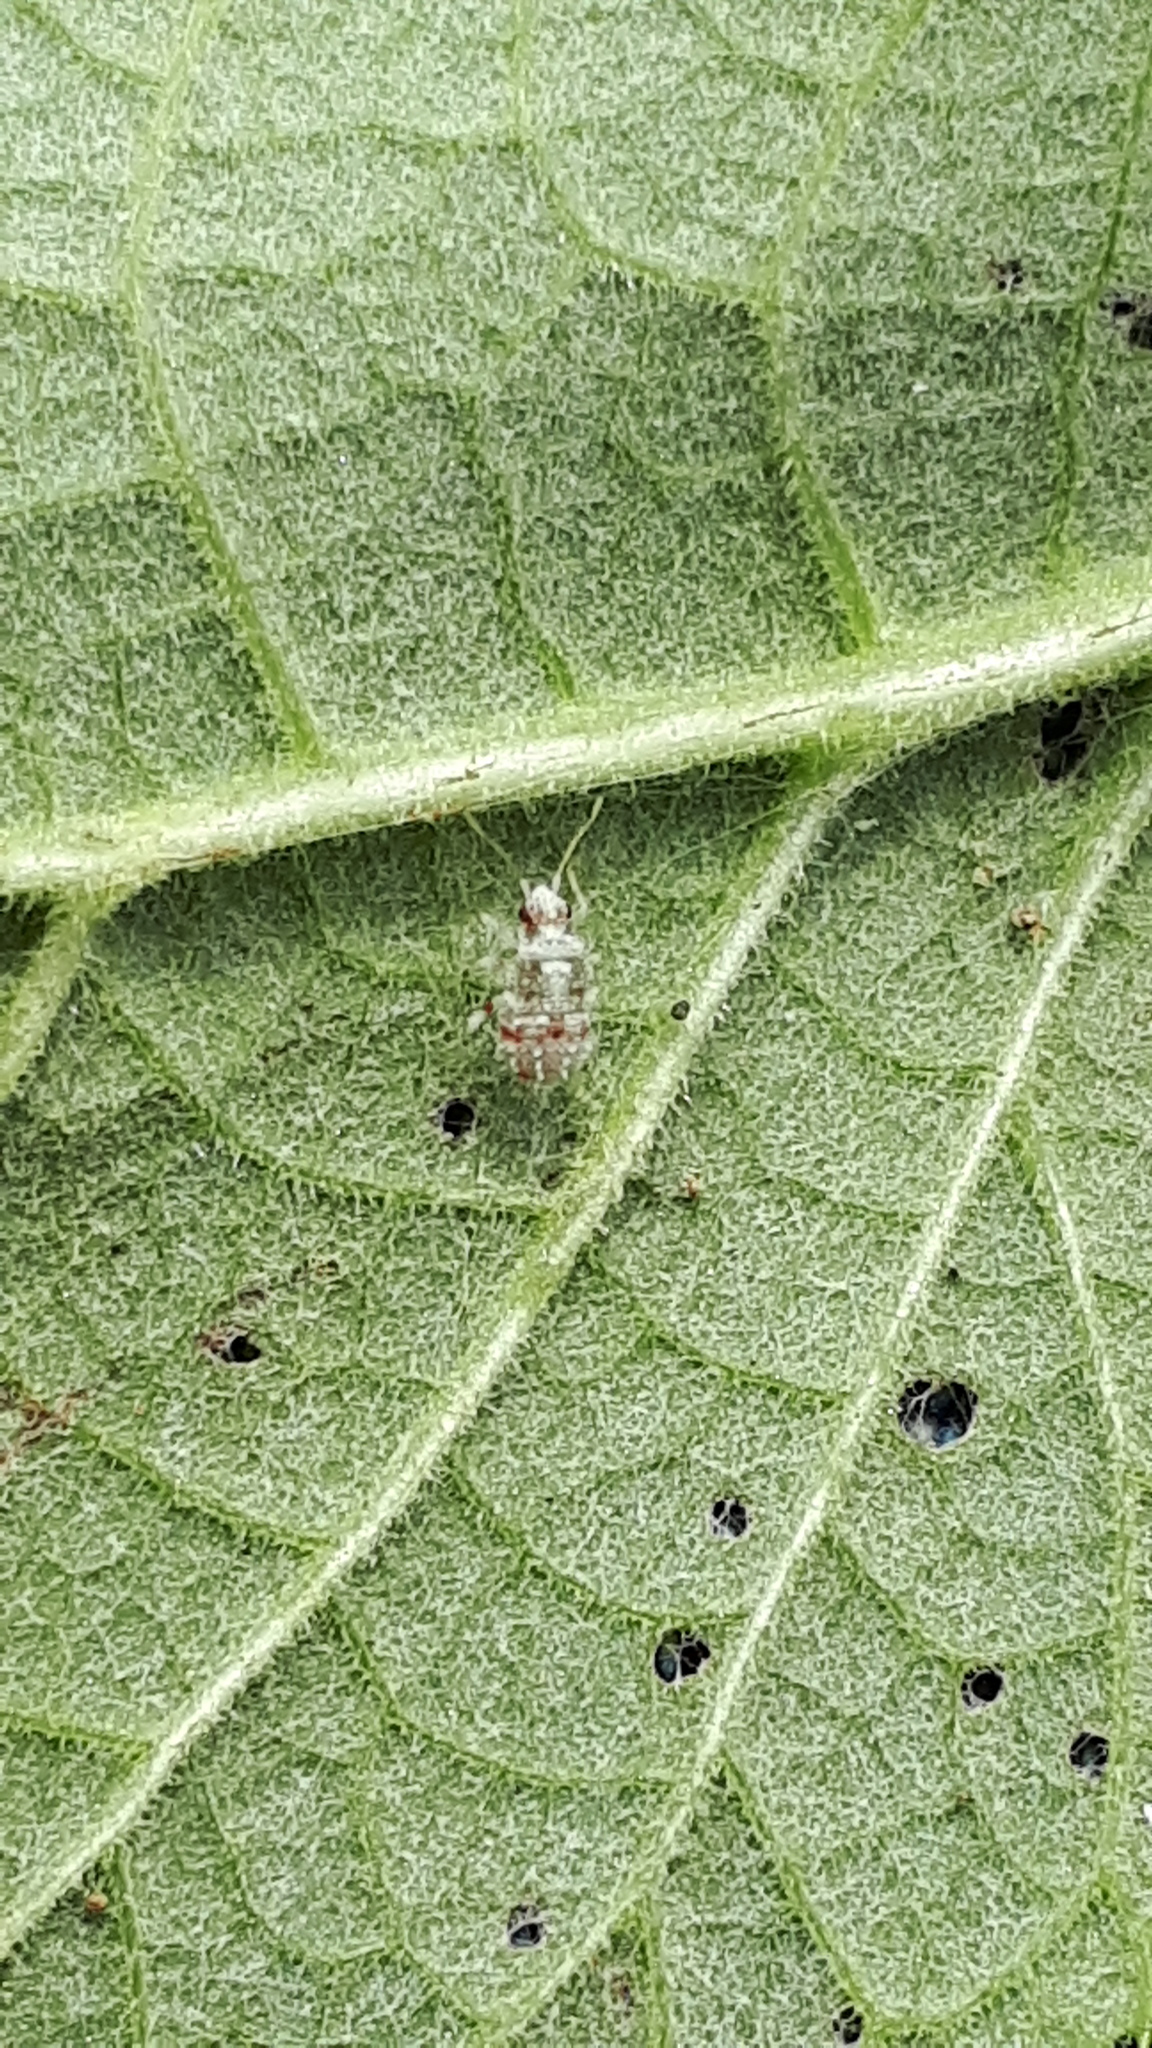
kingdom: Animalia
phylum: Arthropoda
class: Insecta
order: Hemiptera
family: Miridae
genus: Deraeocoris
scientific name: Deraeocoris lutescens
